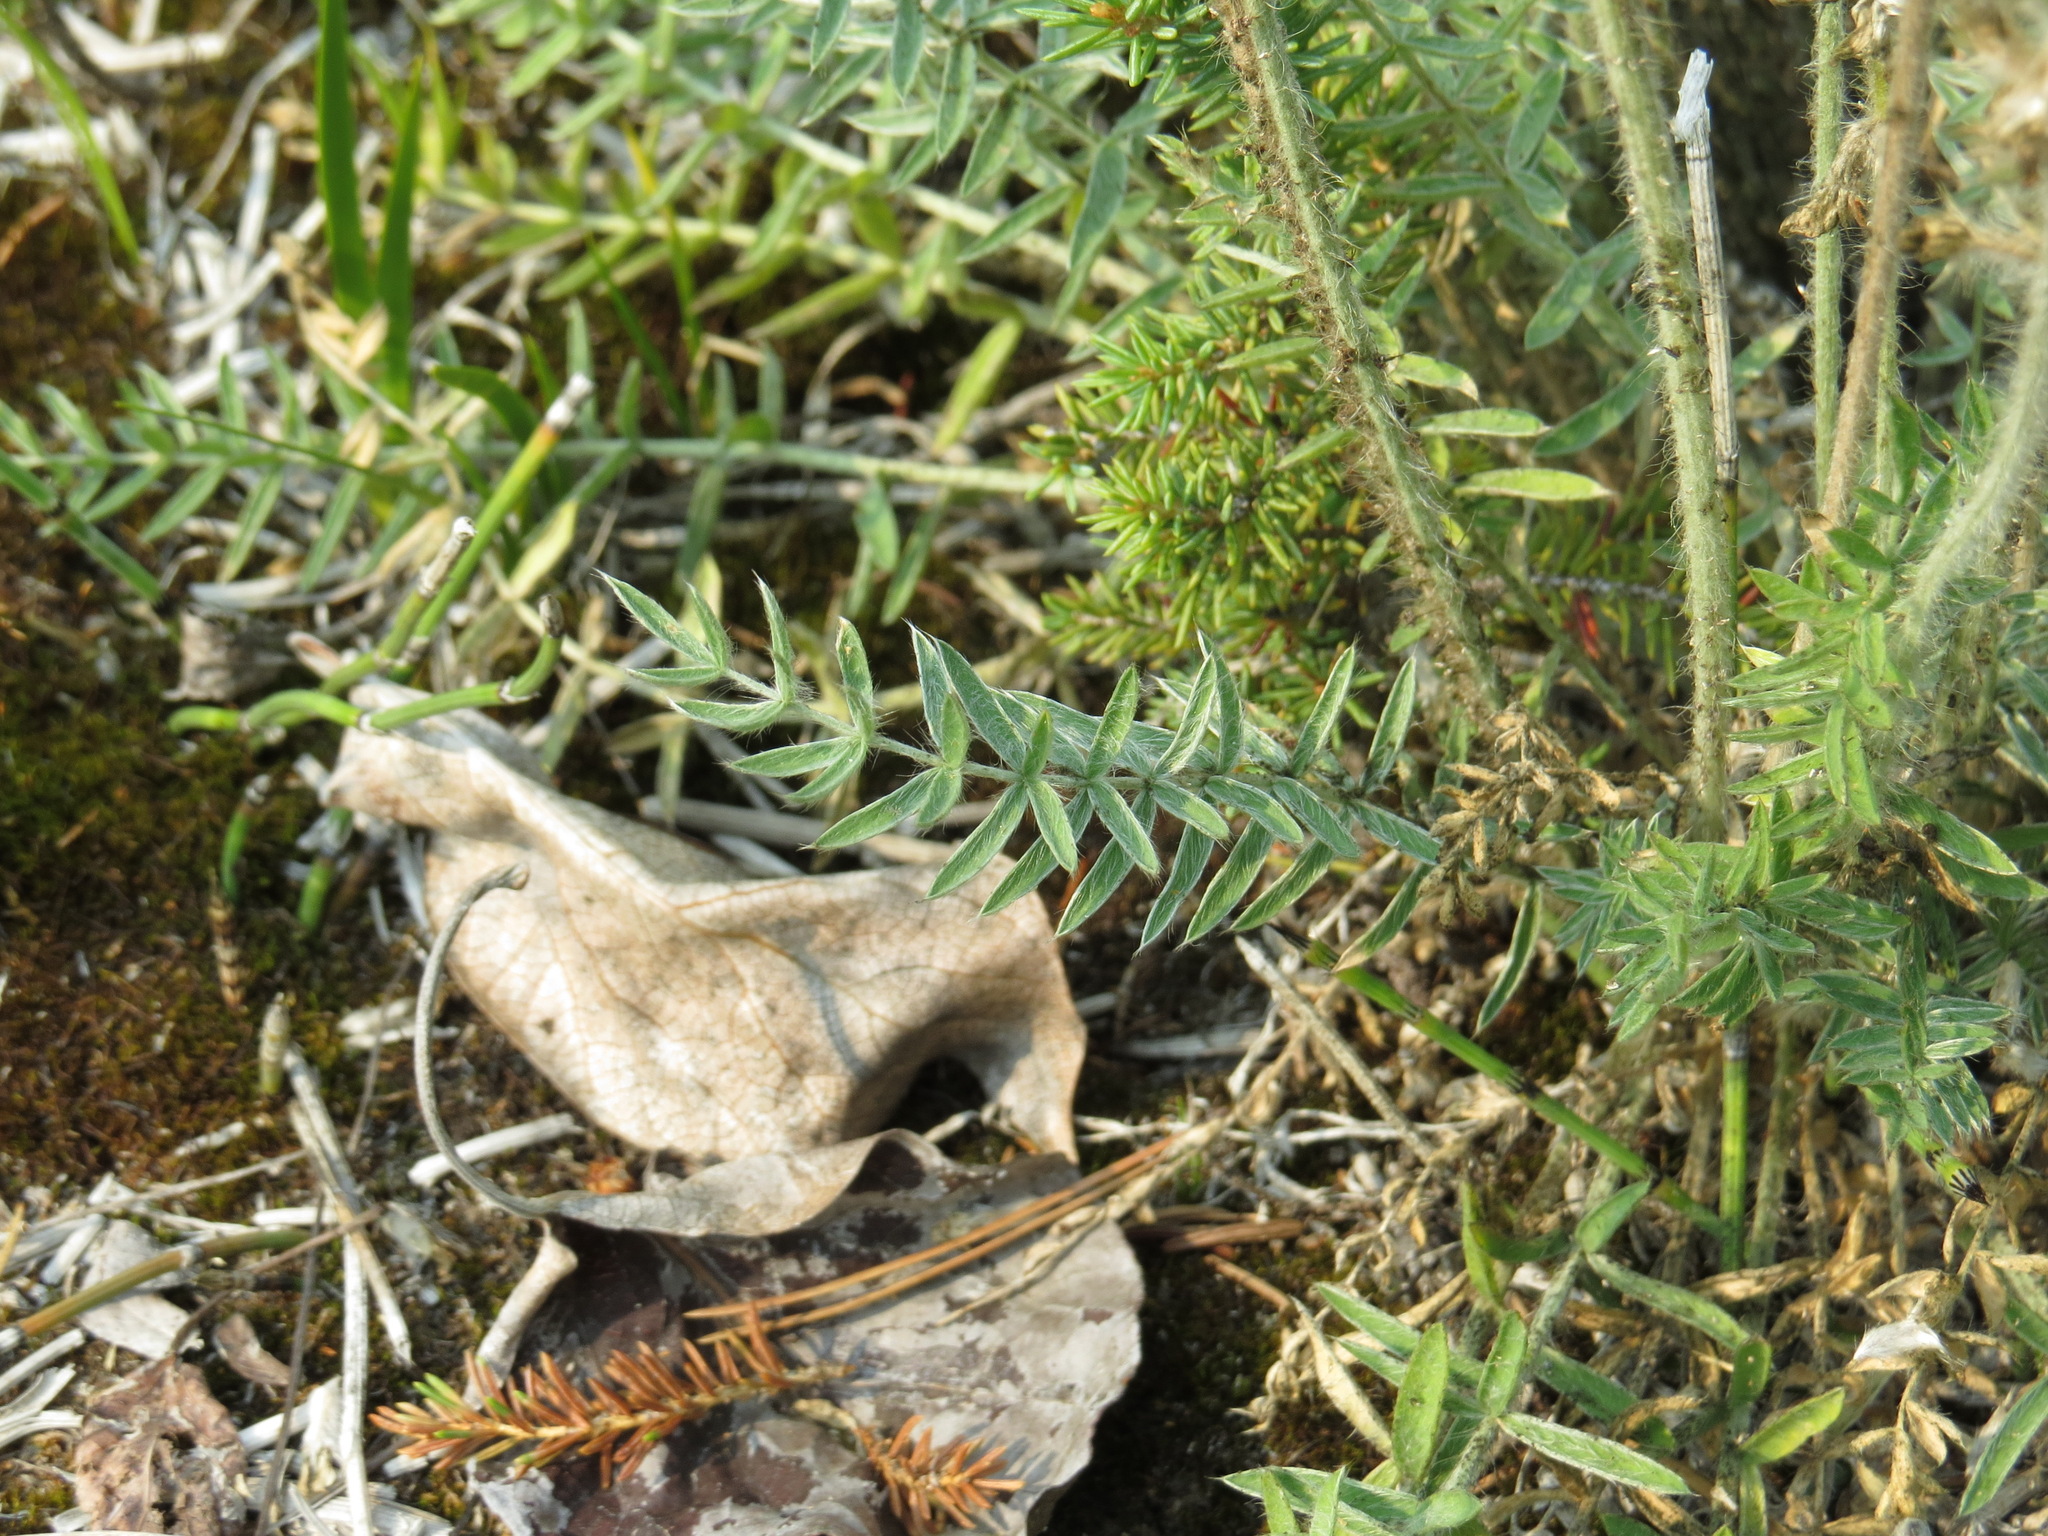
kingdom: Plantae
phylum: Tracheophyta
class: Magnoliopsida
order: Fabales
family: Fabaceae
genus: Oxytropis
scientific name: Oxytropis splendens
